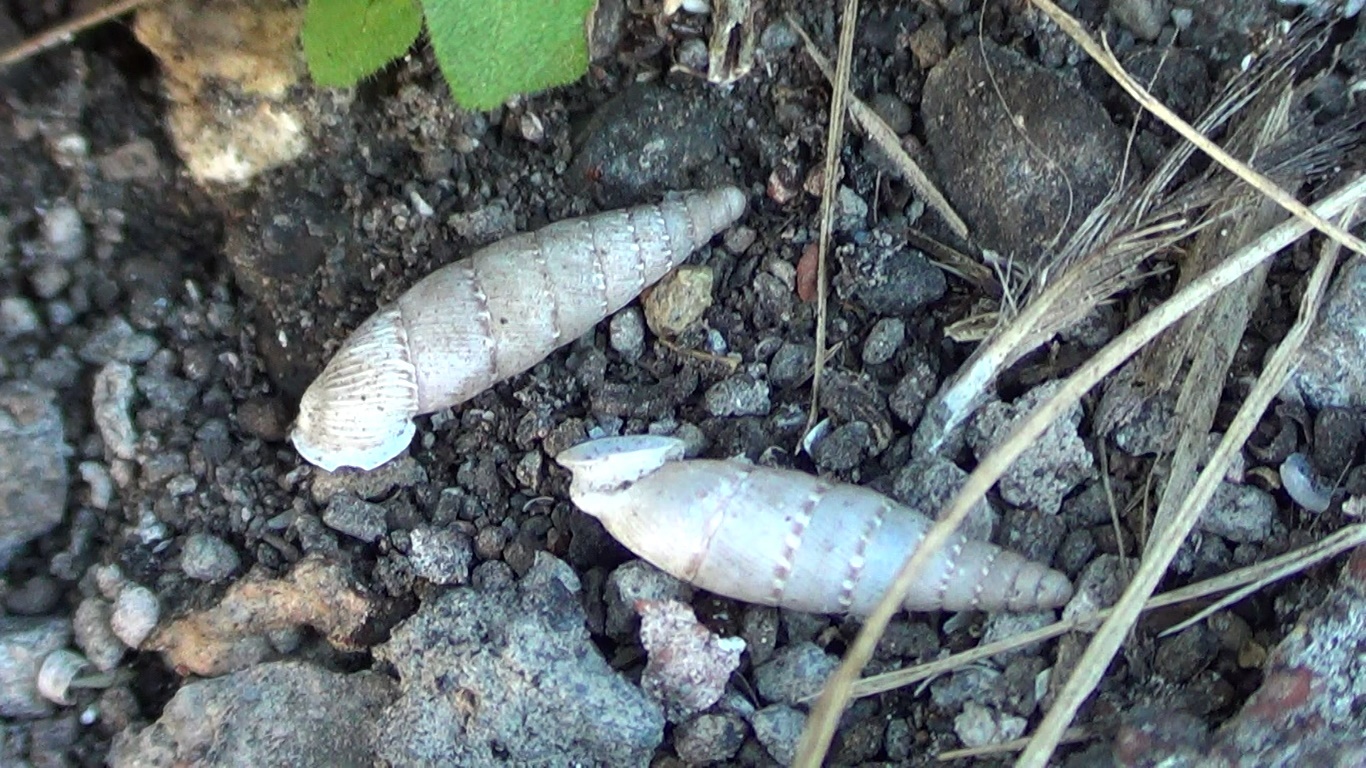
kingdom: Animalia
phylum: Mollusca
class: Gastropoda
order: Stylommatophora
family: Clausiliidae
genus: Papillifera
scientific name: Papillifera papillaris
